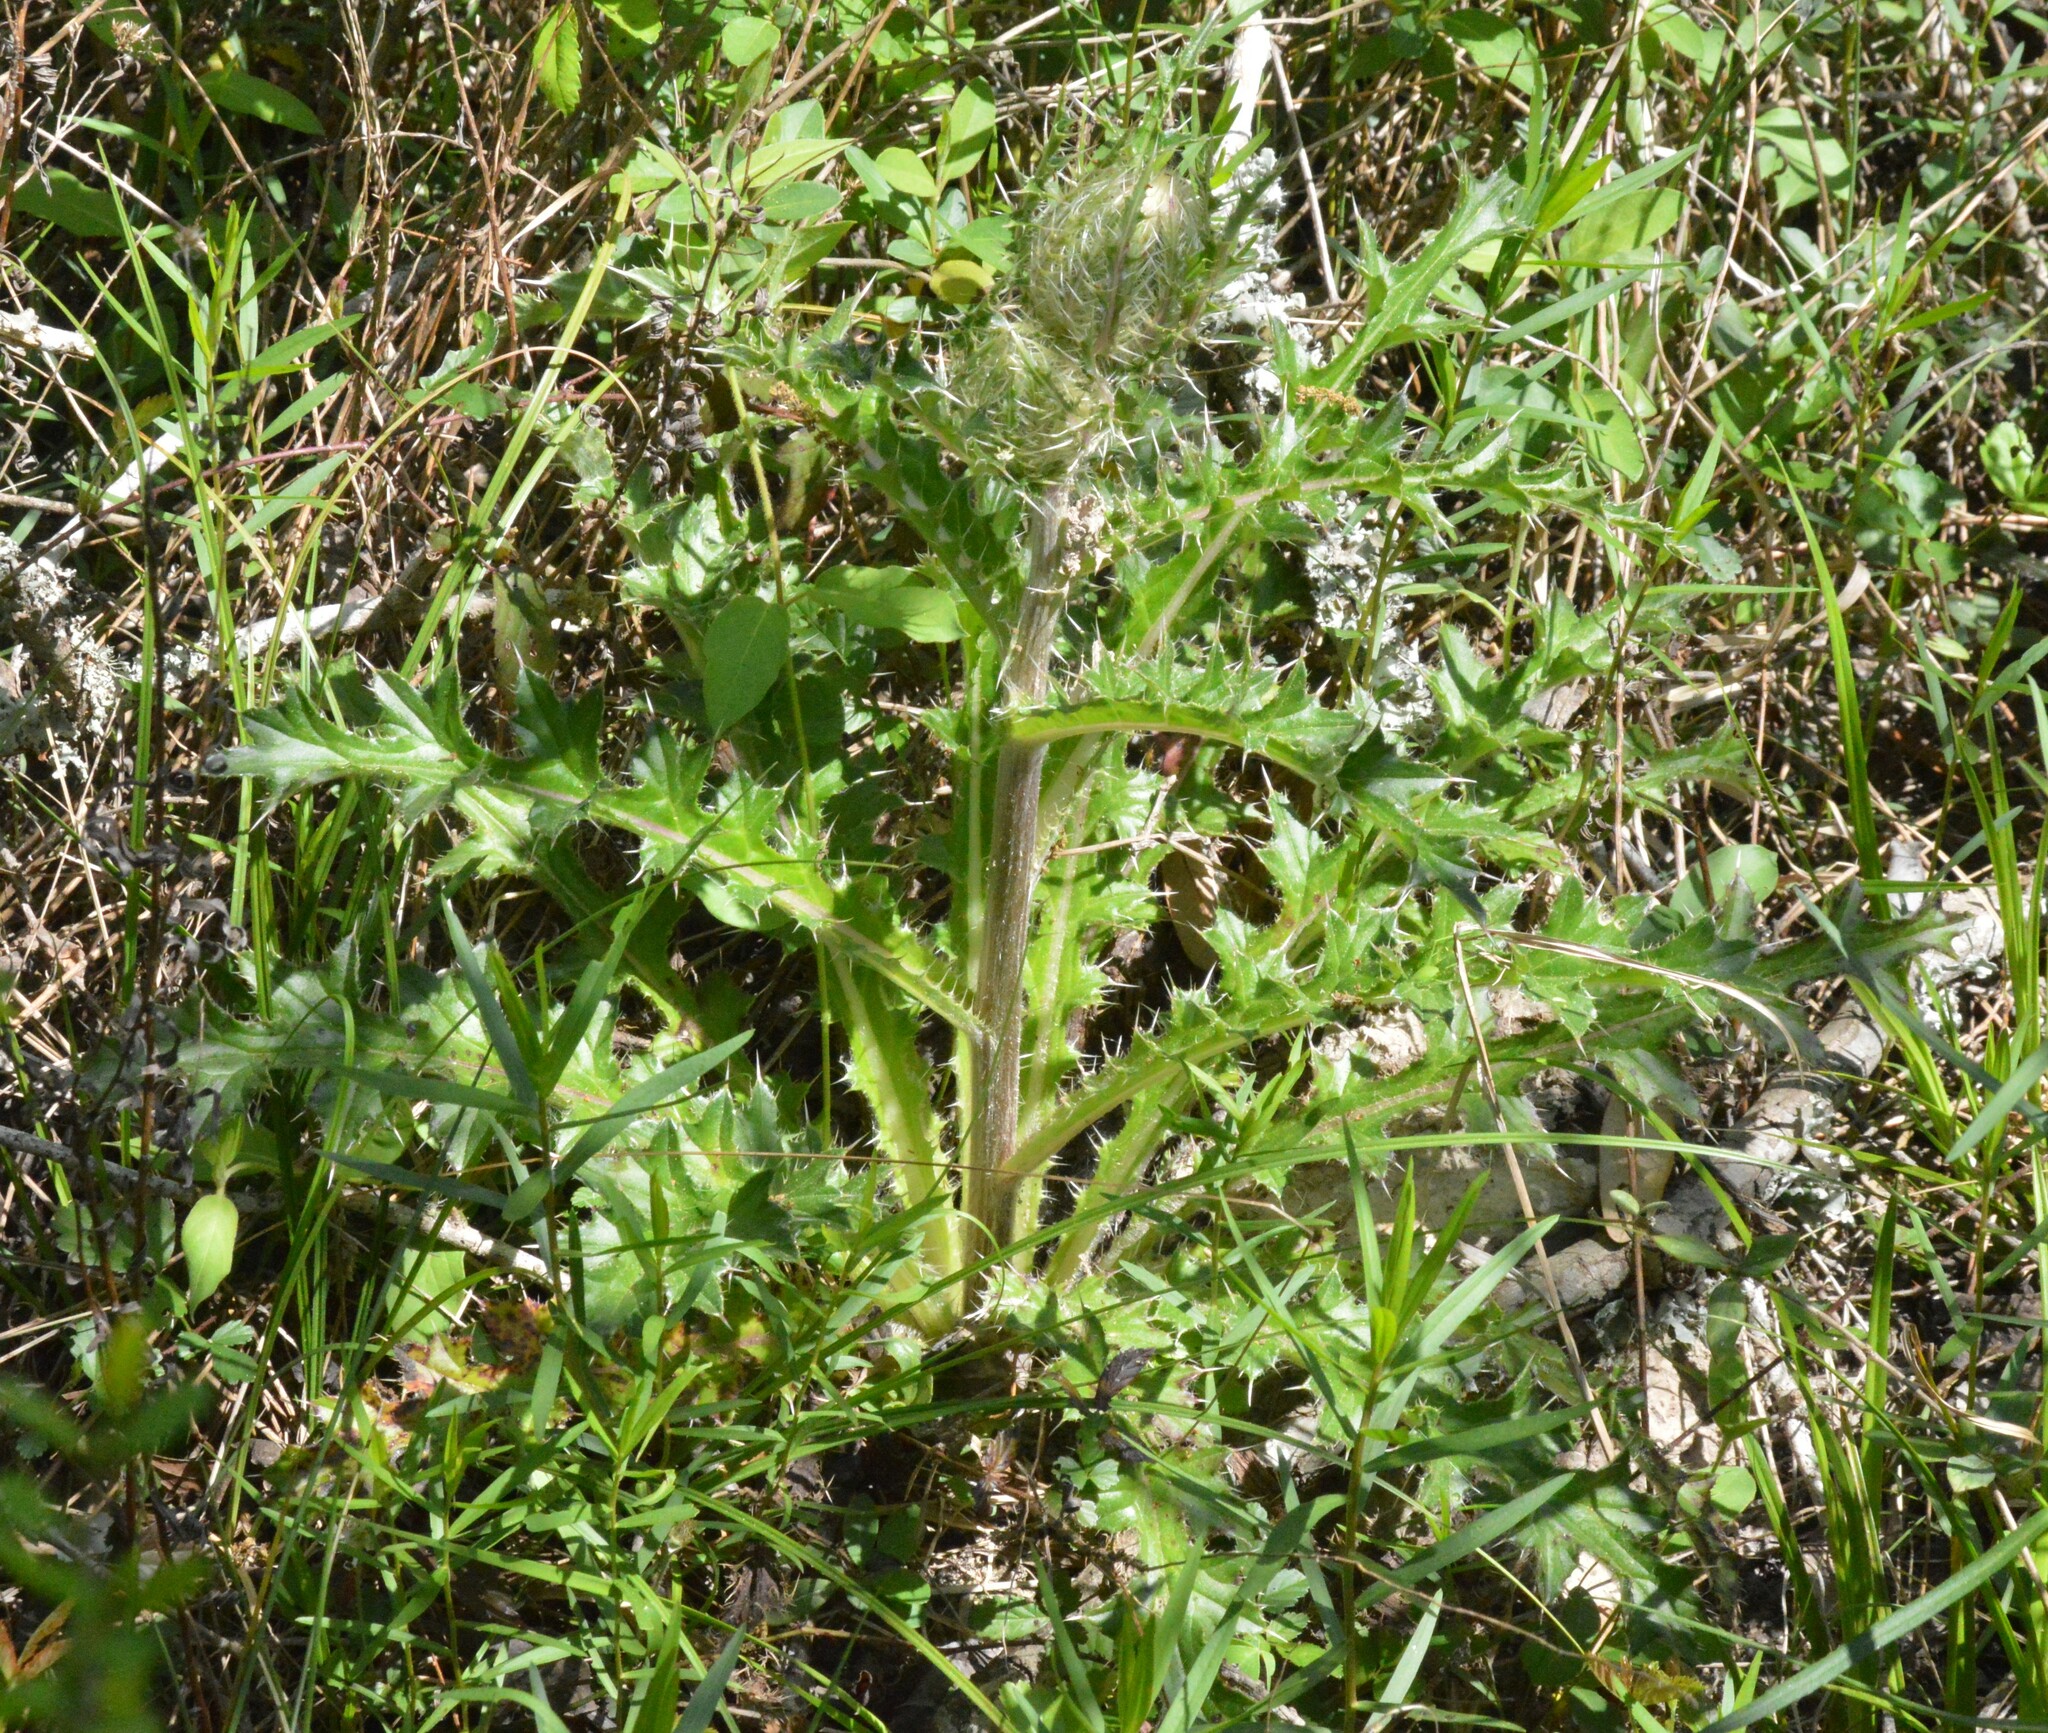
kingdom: Plantae
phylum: Tracheophyta
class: Magnoliopsida
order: Asterales
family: Asteraceae
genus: Cirsium
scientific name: Cirsium horridulum
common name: Bristly thistle
